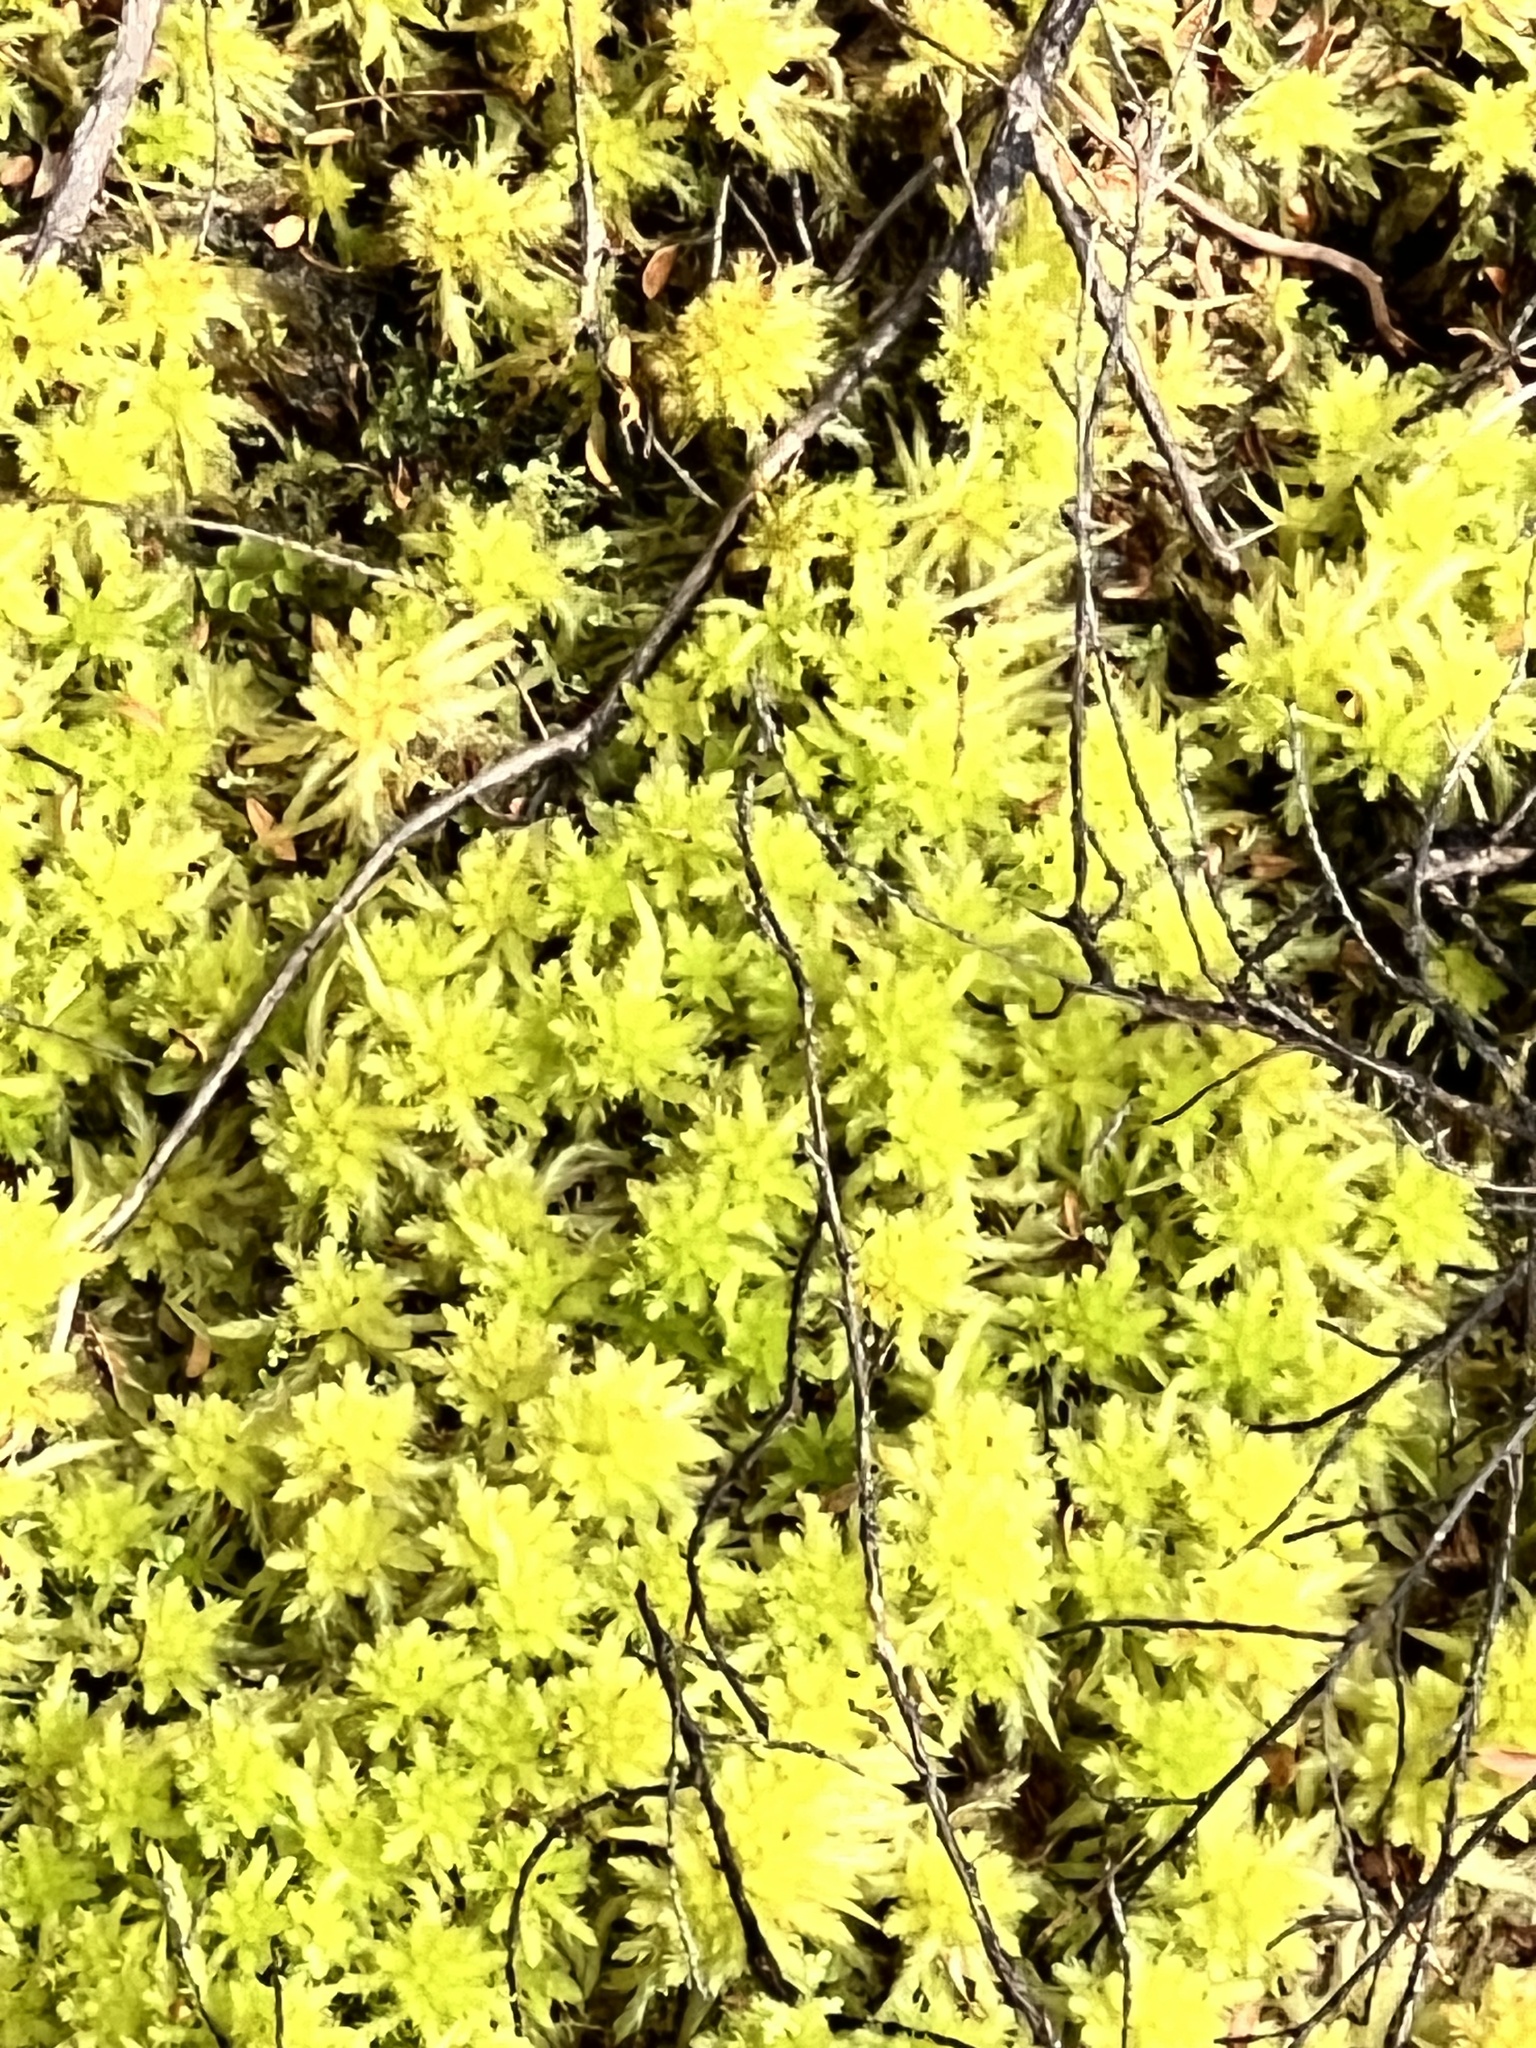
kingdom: Plantae
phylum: Bryophyta
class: Sphagnopsida
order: Sphagnales
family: Sphagnaceae
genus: Sphagnum
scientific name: Sphagnum cristatum
